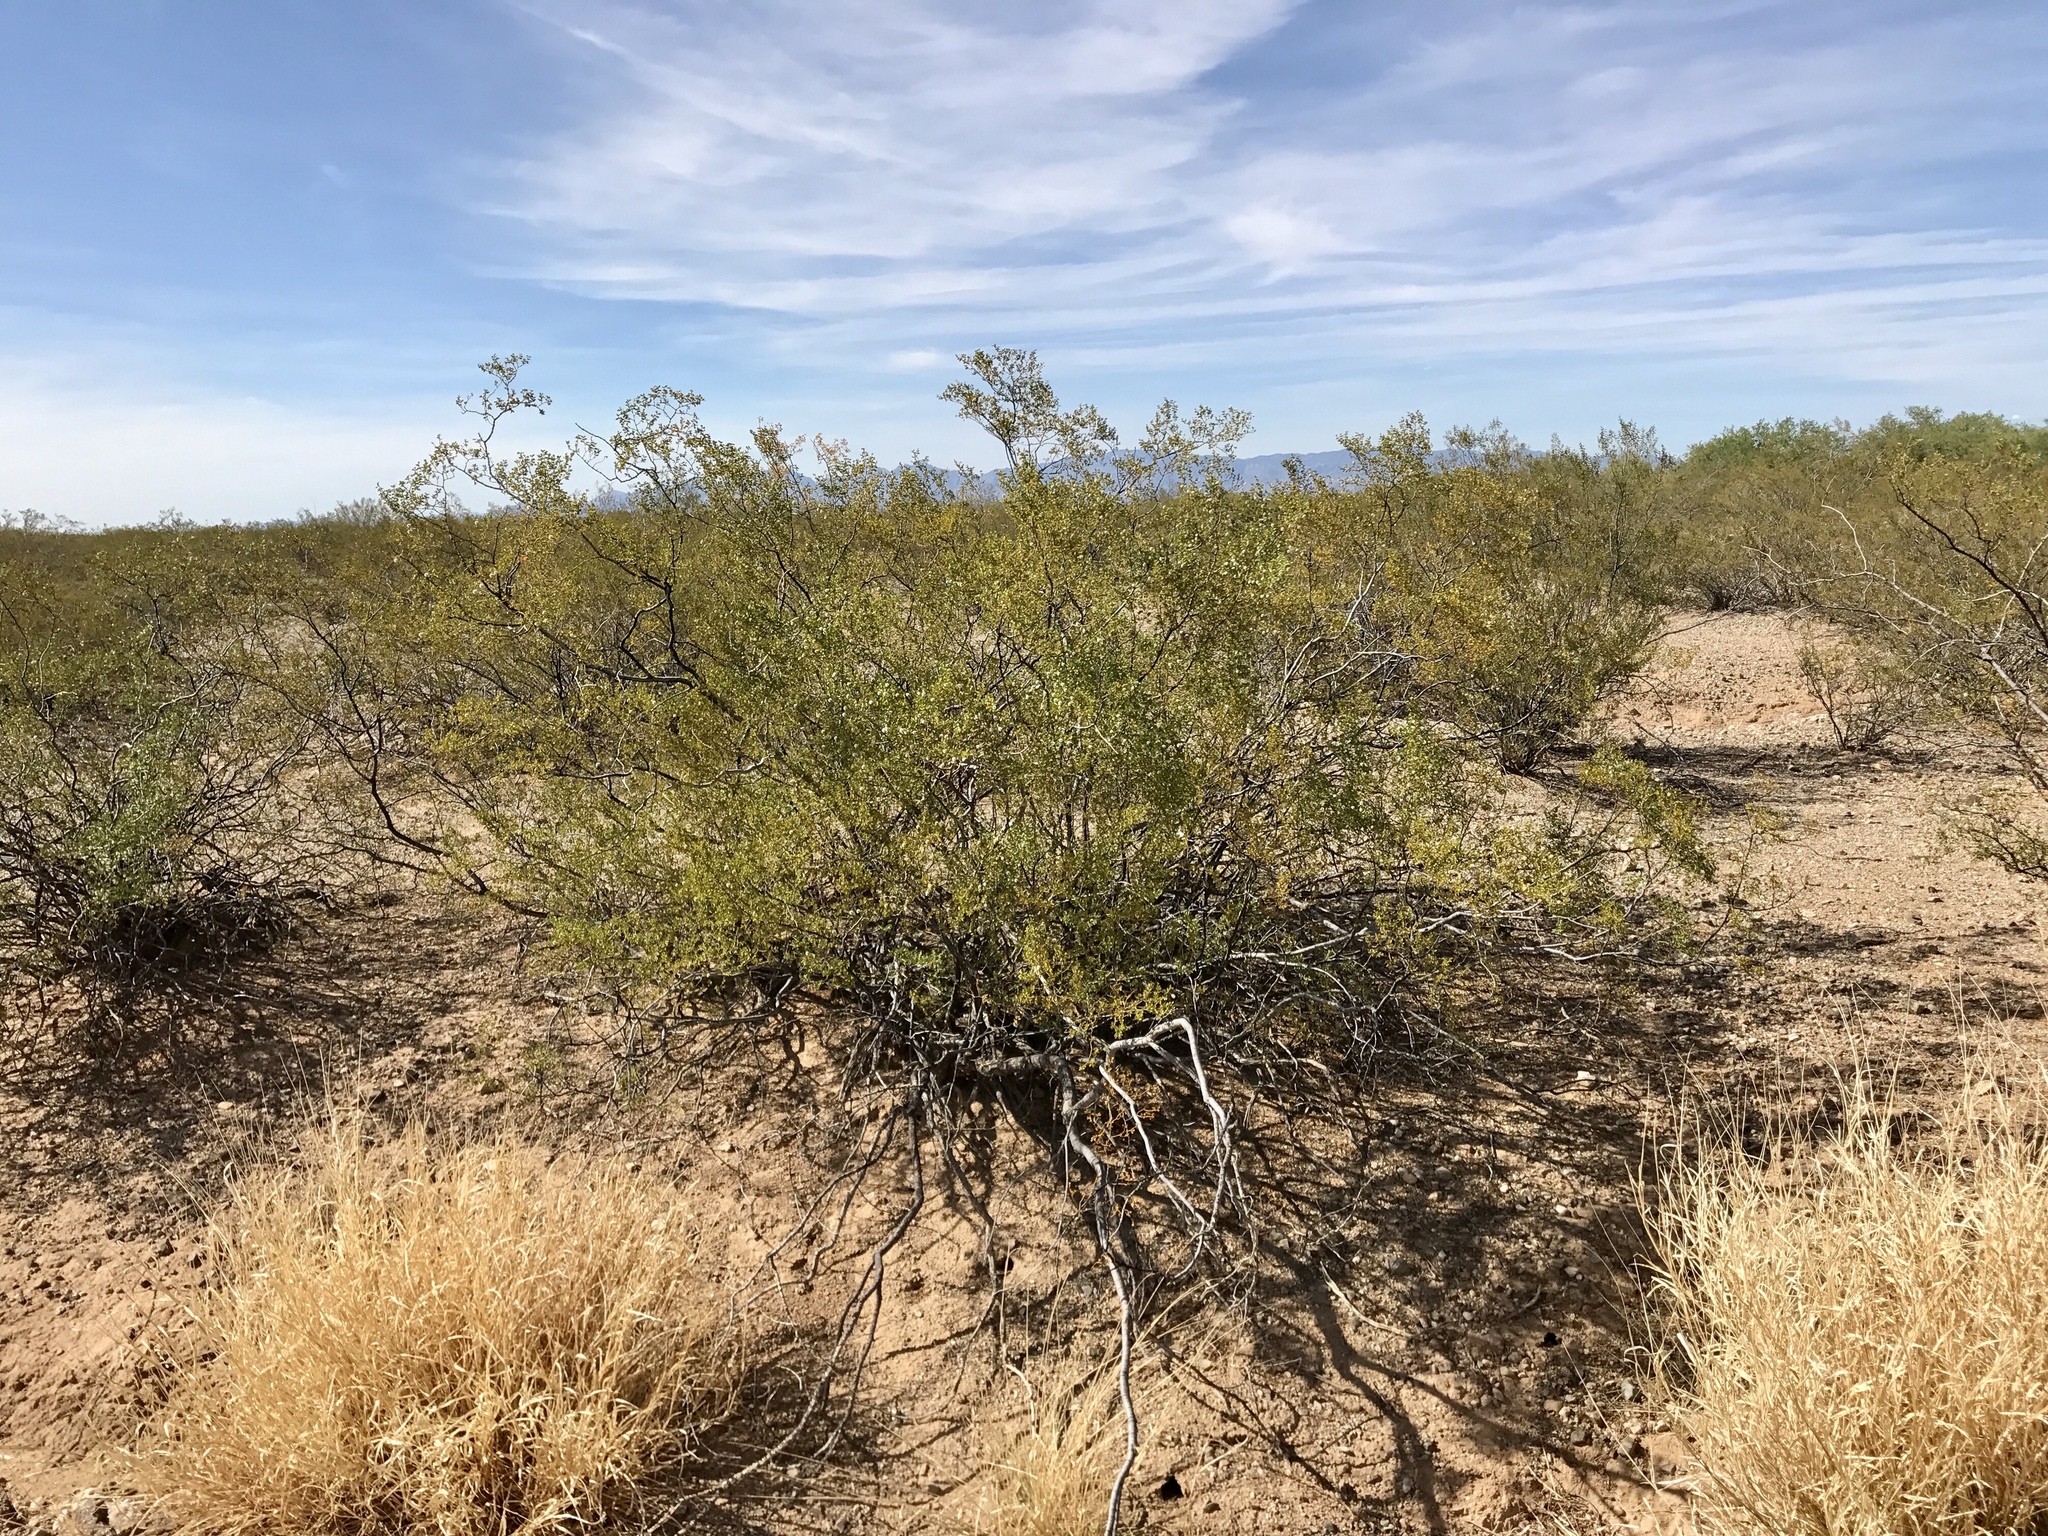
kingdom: Plantae
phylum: Tracheophyta
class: Magnoliopsida
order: Zygophyllales
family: Zygophyllaceae
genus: Larrea
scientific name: Larrea tridentata
